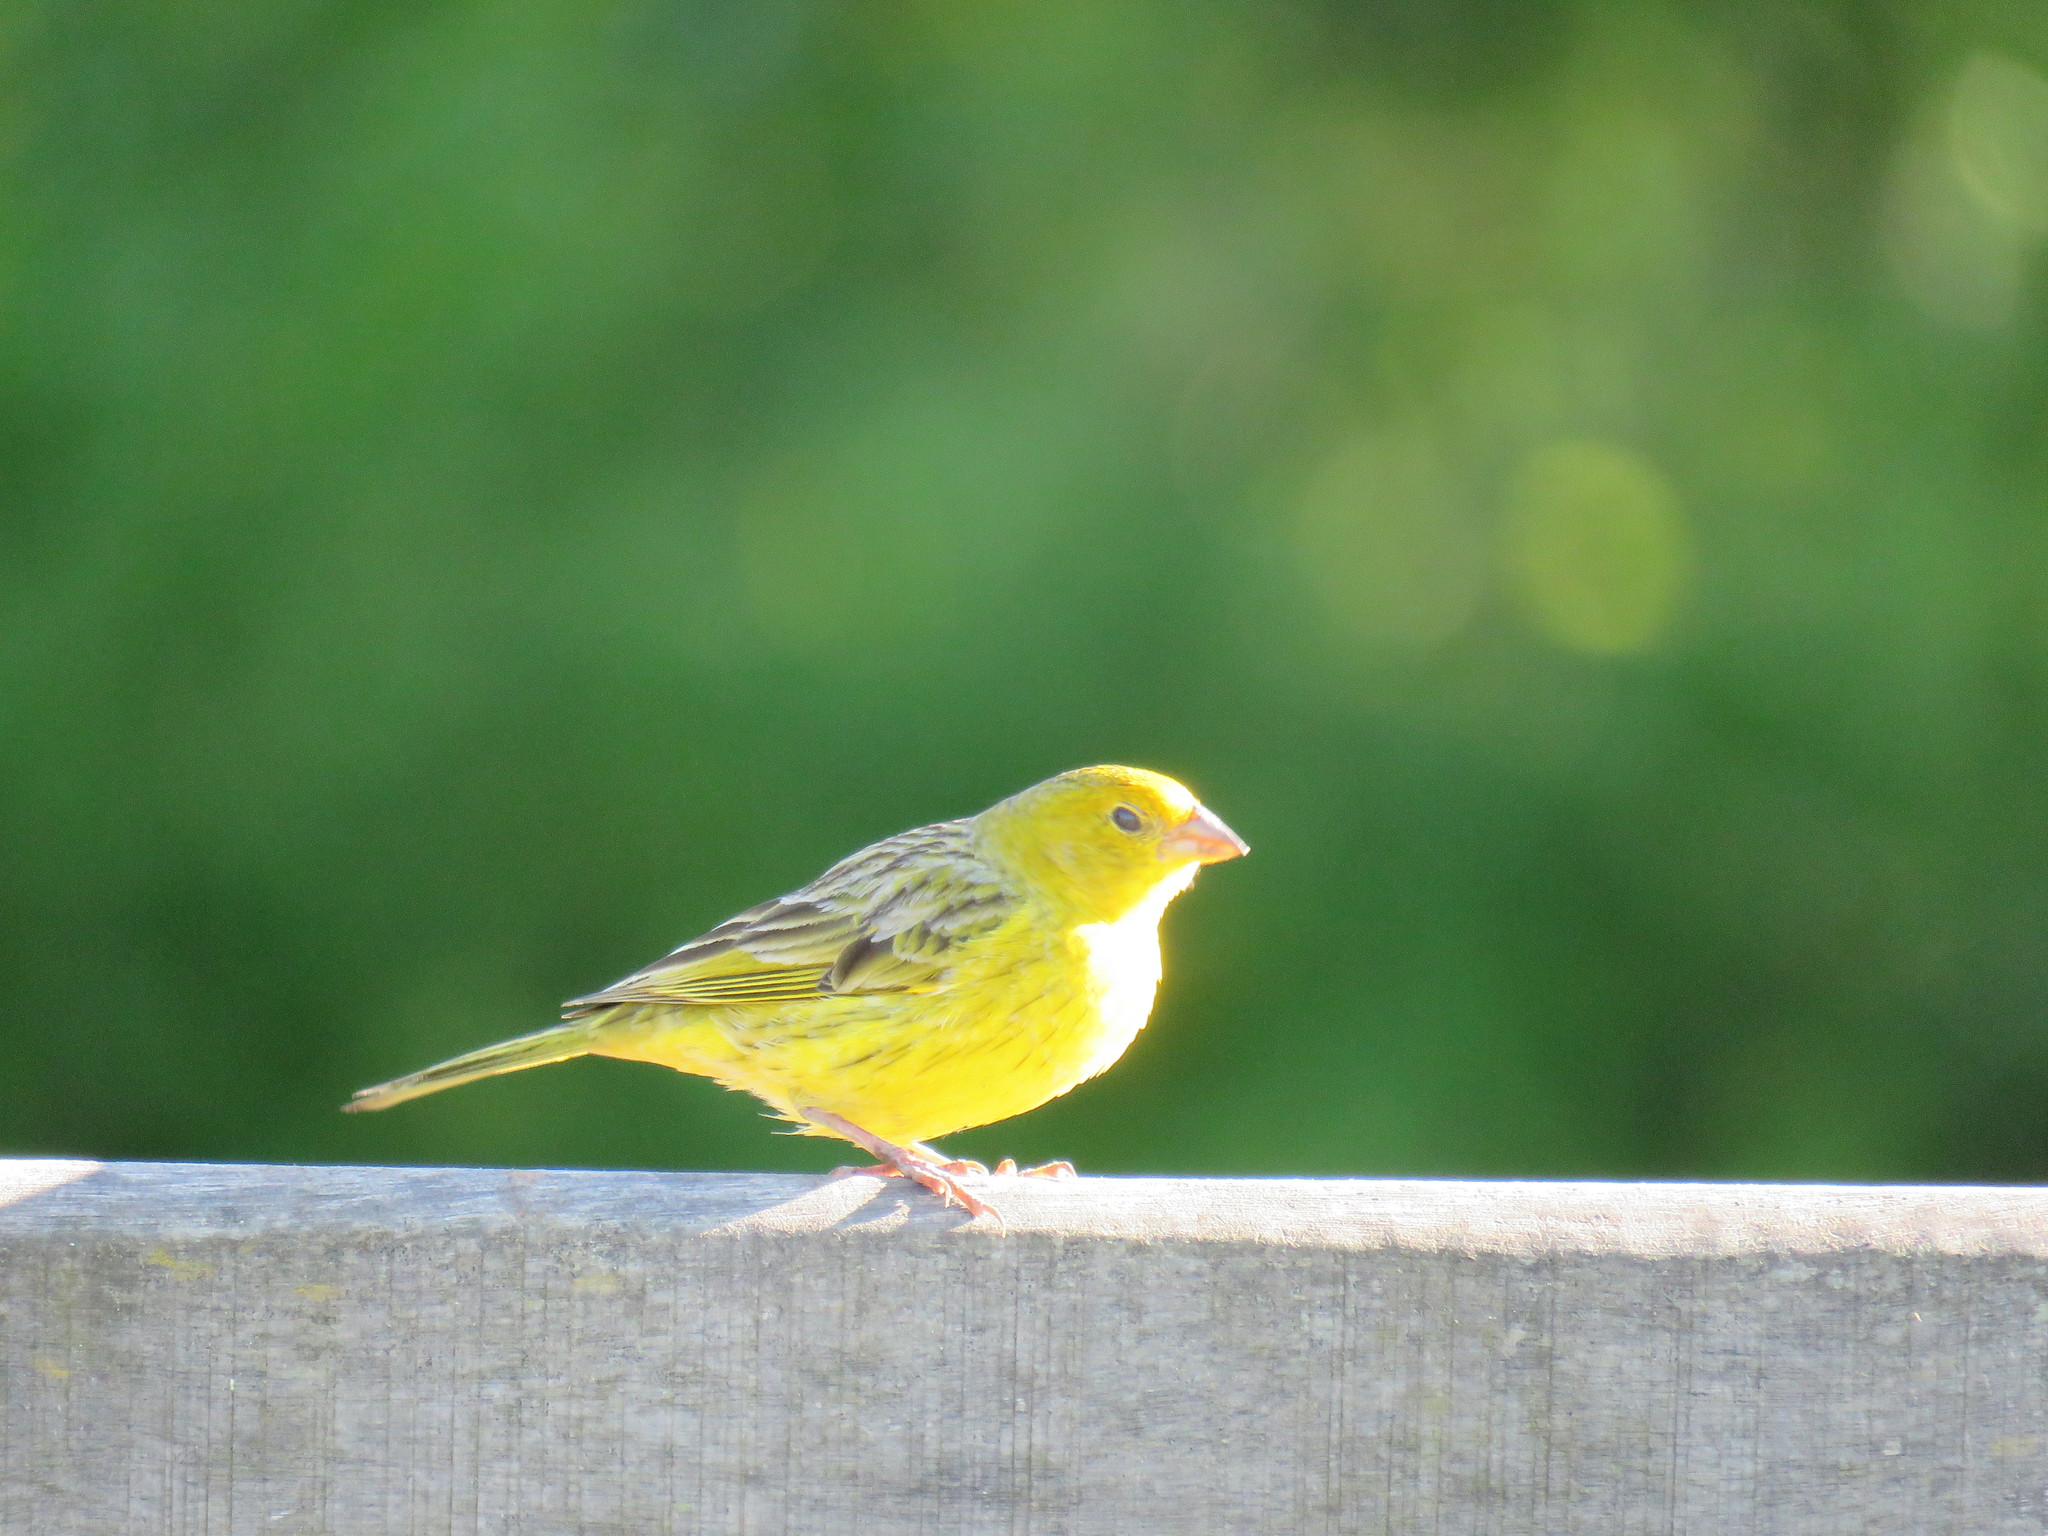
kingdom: Animalia
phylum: Chordata
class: Aves
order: Passeriformes
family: Thraupidae
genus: Sicalis
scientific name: Sicalis flaveola
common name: Saffron finch
